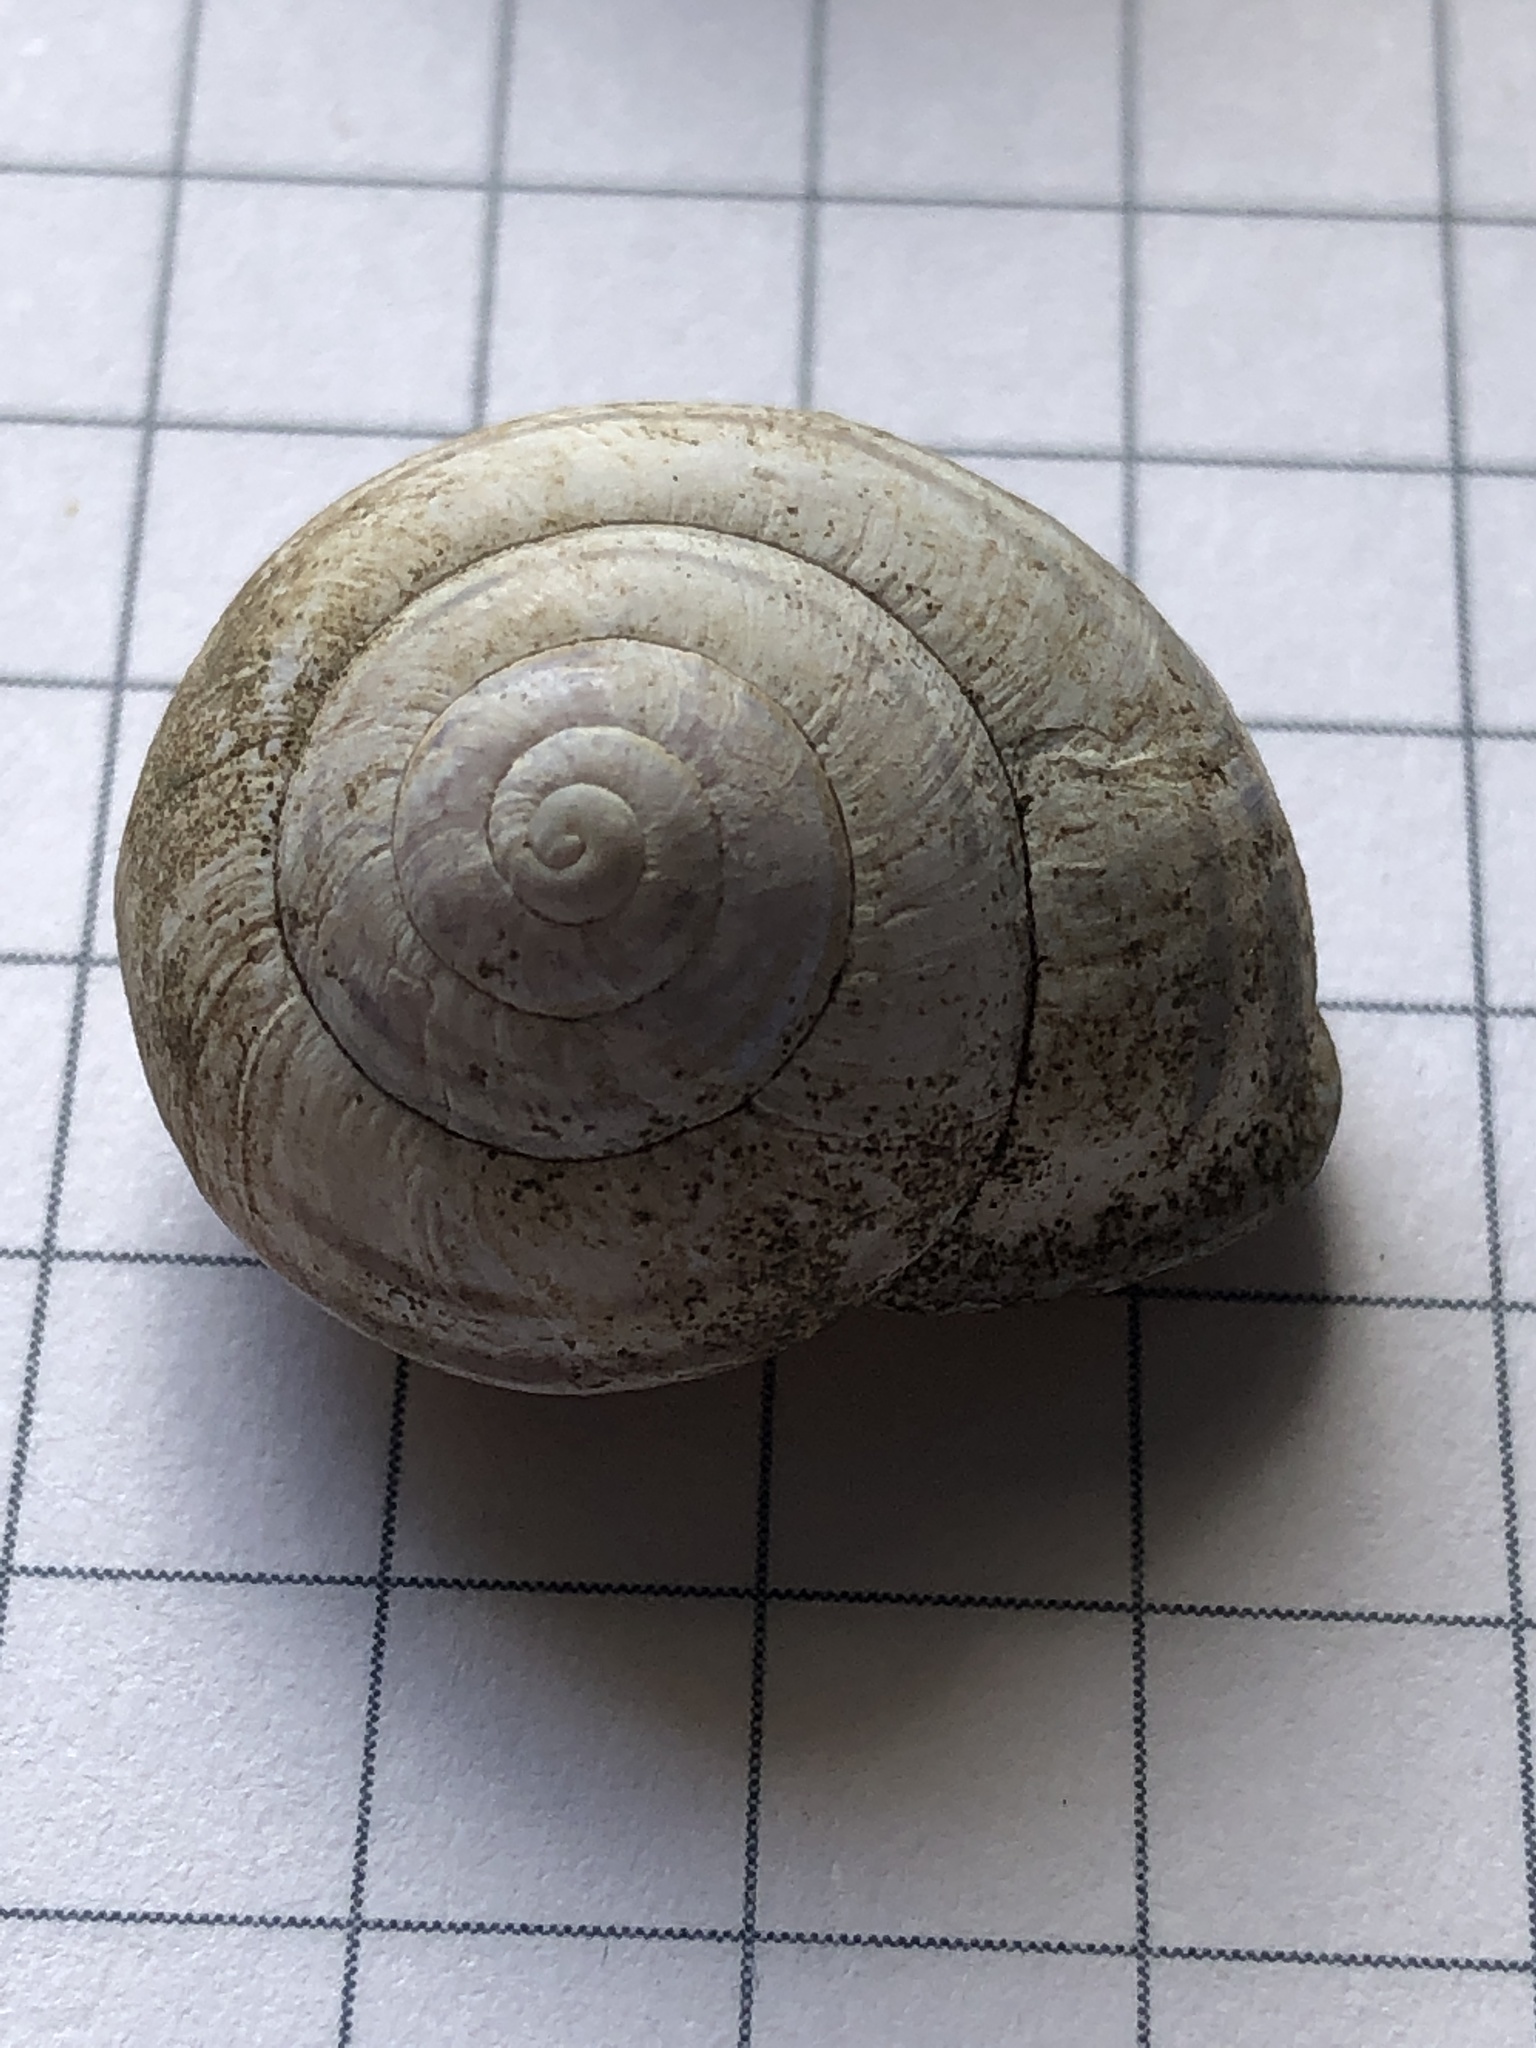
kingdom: Animalia
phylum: Mollusca
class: Gastropoda
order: Stylommatophora
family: Helicidae
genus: Cepaea
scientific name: Cepaea nemoralis
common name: Grovesnail
